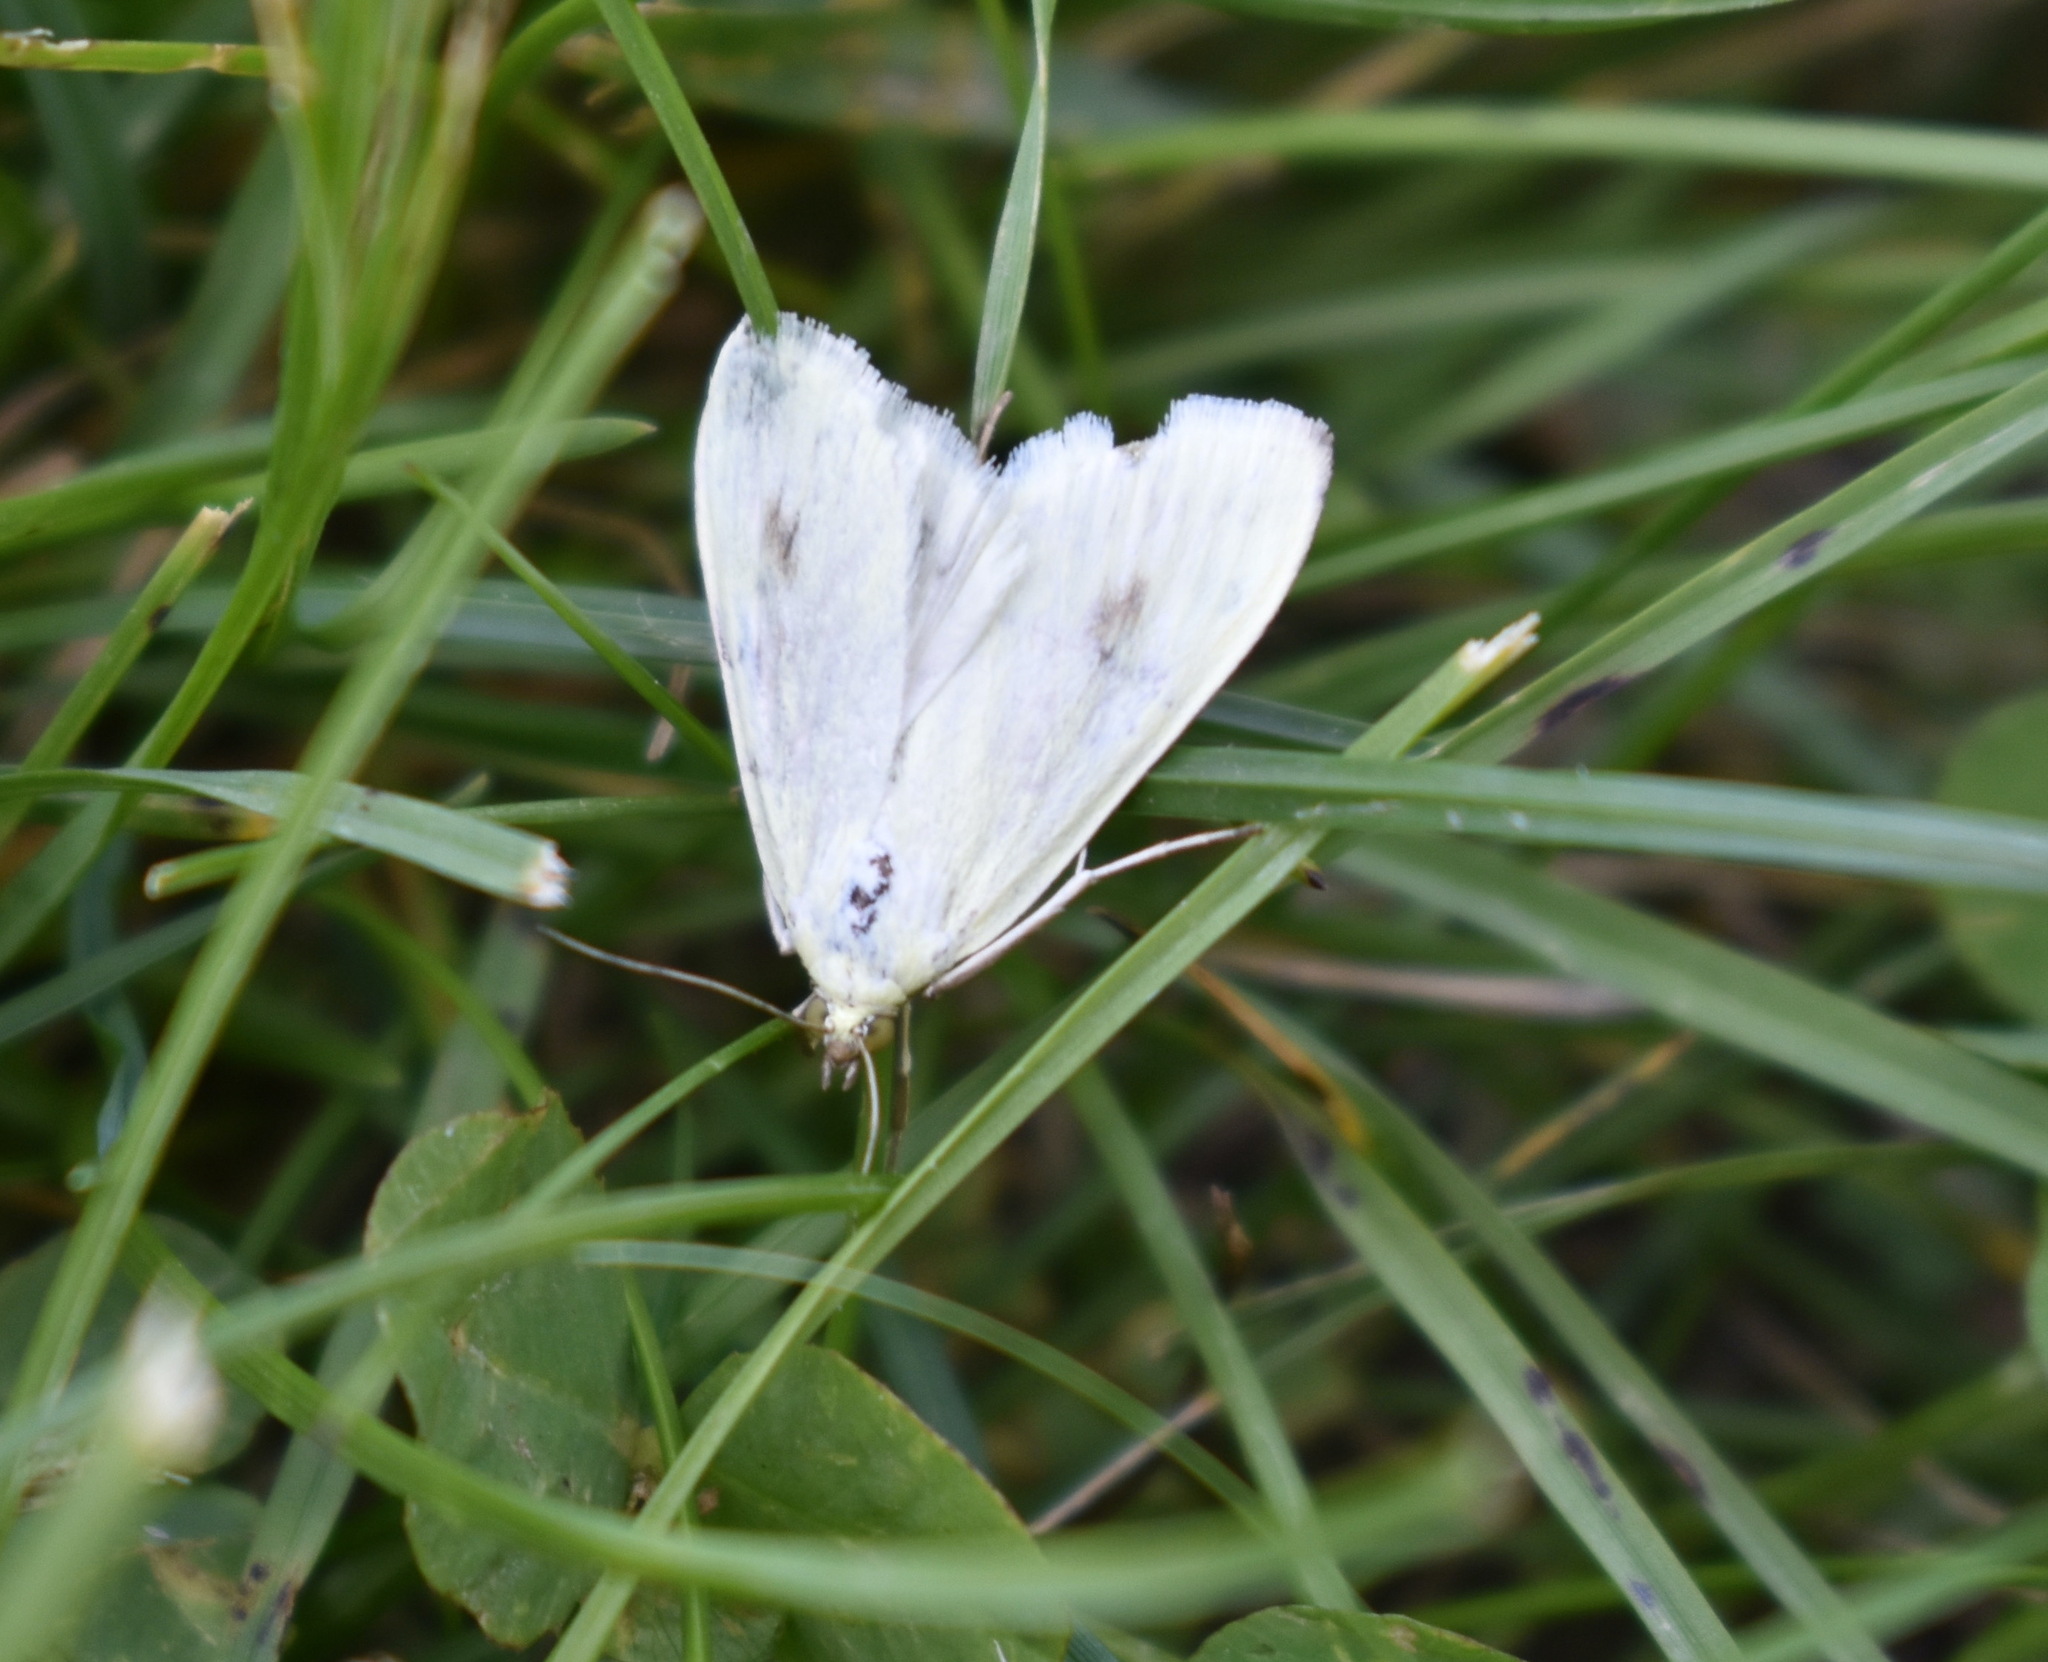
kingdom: Animalia
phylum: Arthropoda
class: Insecta
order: Lepidoptera
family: Crambidae
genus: Sitochroa
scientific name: Sitochroa palealis
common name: Greenish-yellow sitochroa moth
